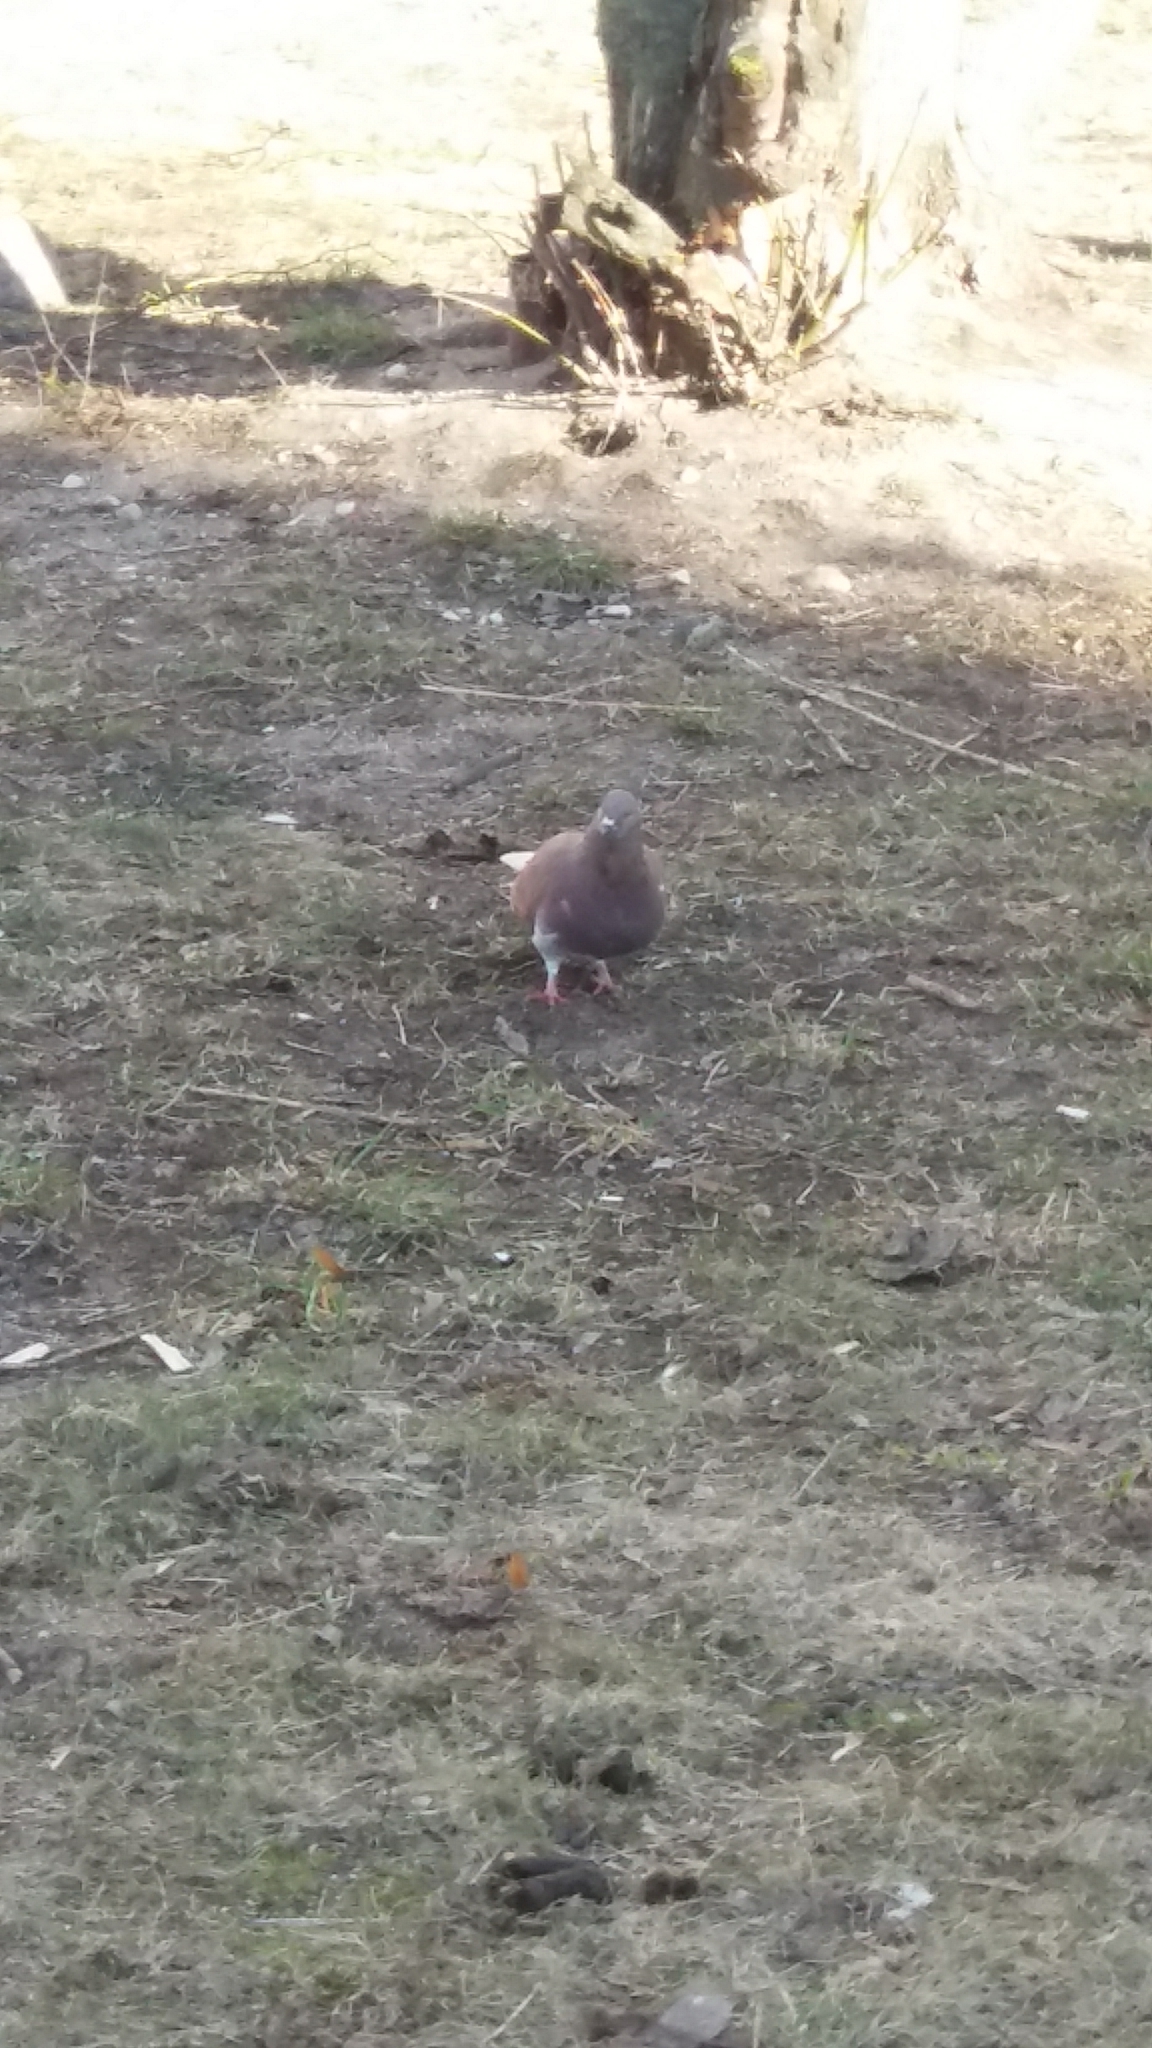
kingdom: Animalia
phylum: Chordata
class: Aves
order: Columbiformes
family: Columbidae
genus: Columba
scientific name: Columba livia
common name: Rock pigeon
